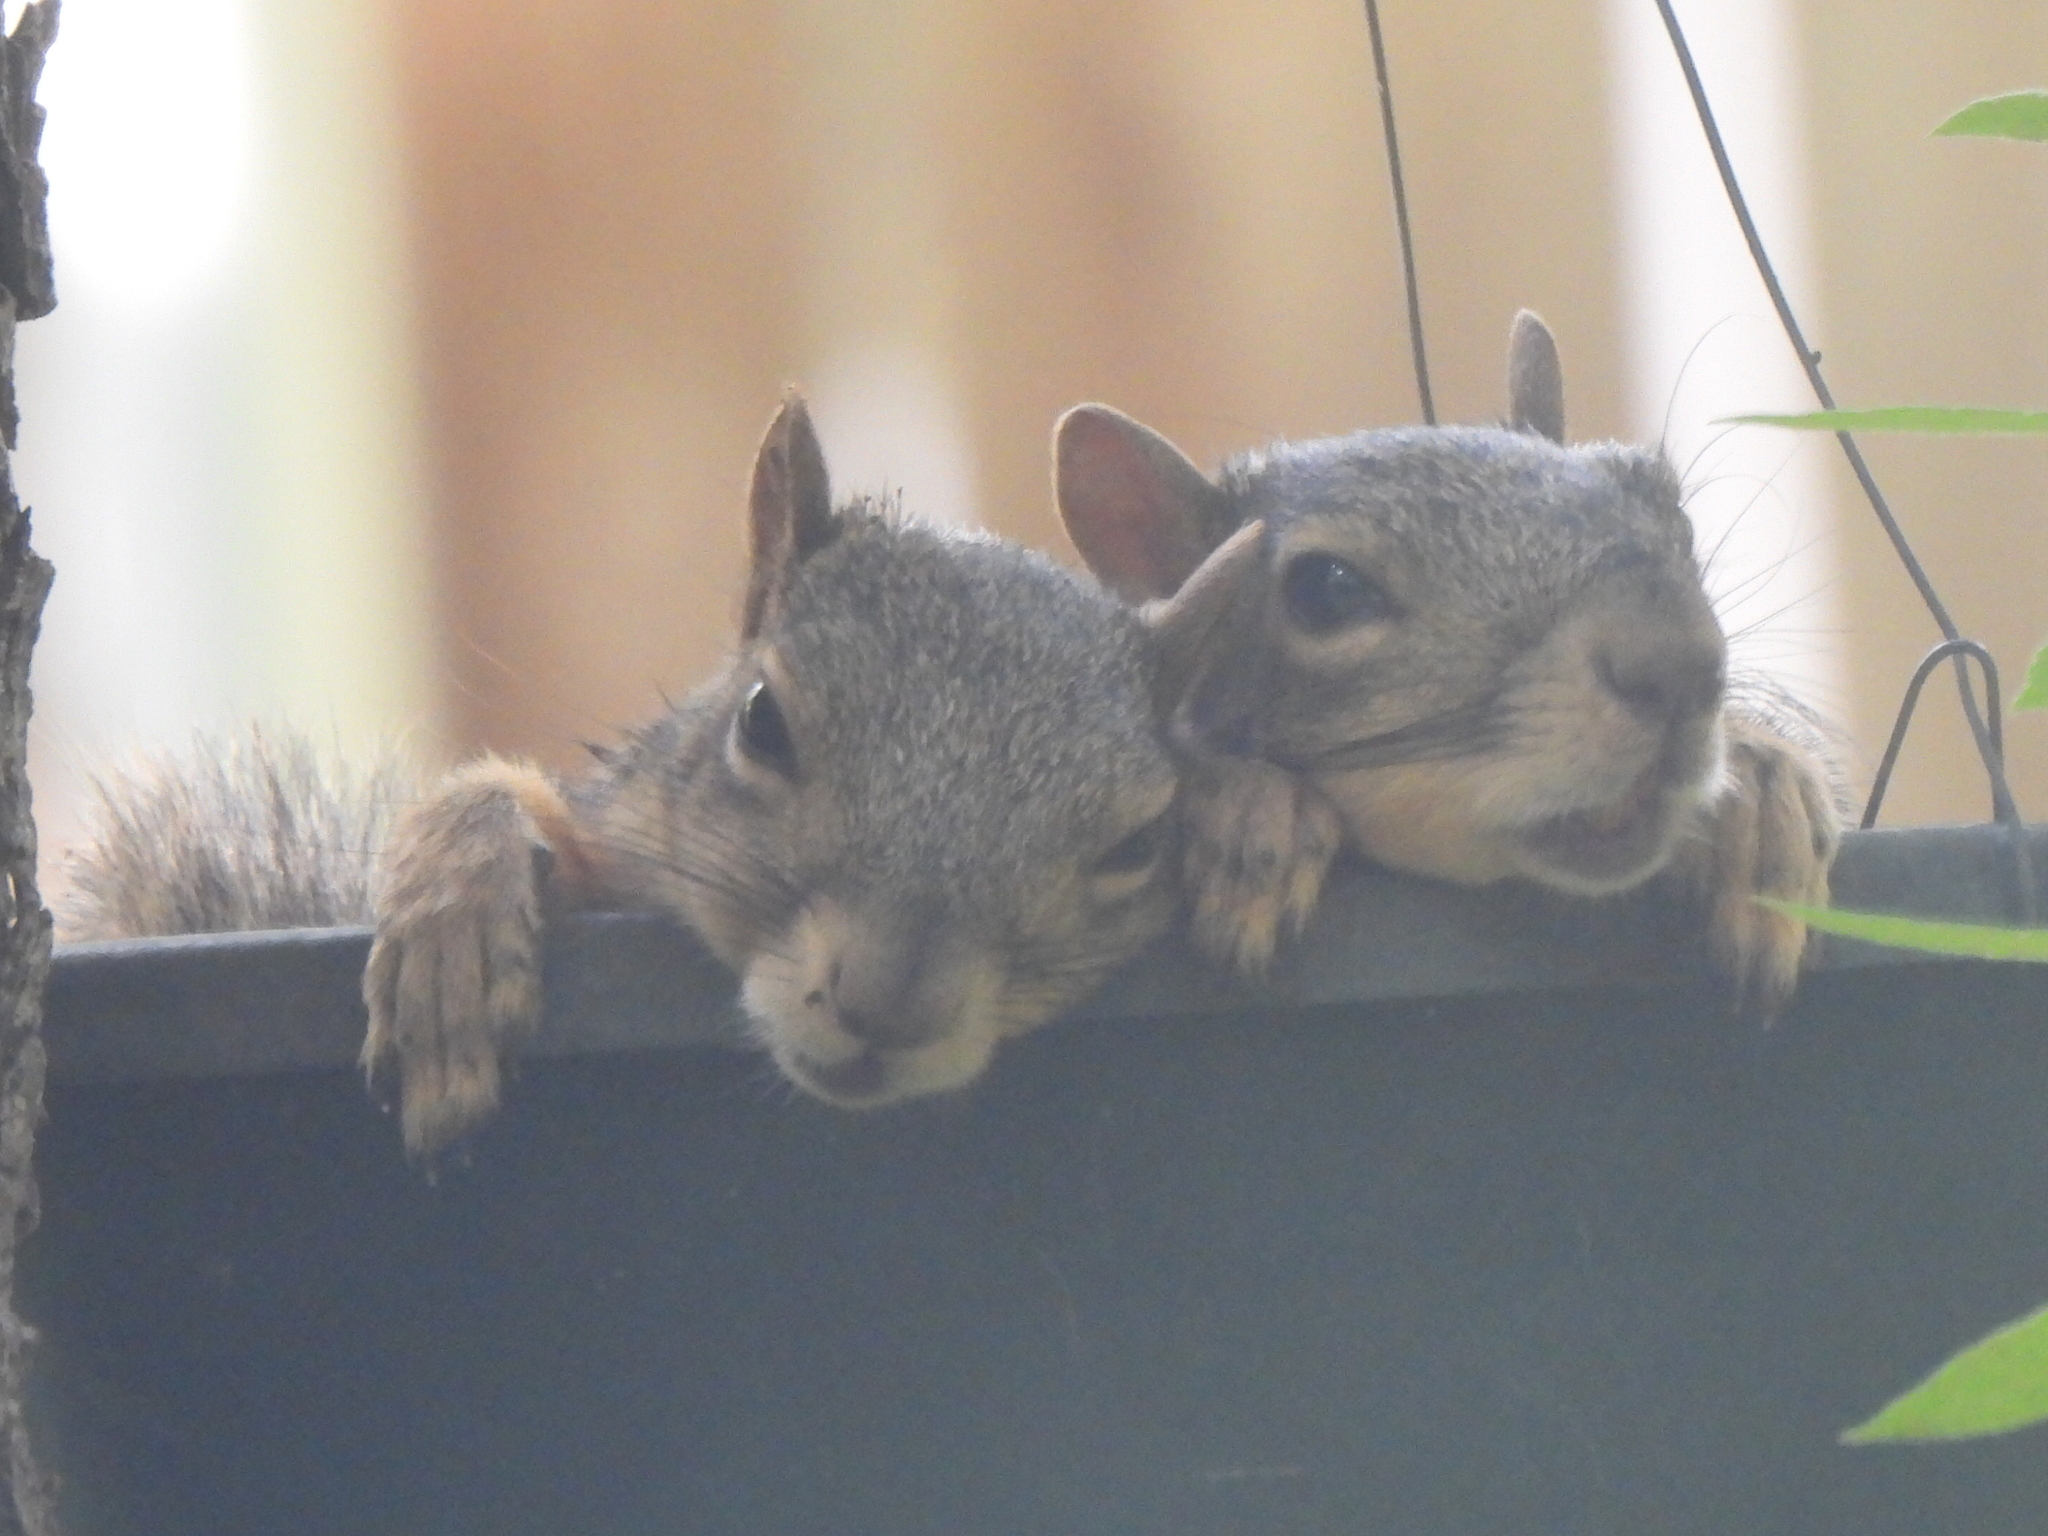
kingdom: Animalia
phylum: Chordata
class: Mammalia
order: Rodentia
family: Sciuridae
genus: Sciurus
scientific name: Sciurus niger
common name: Fox squirrel
